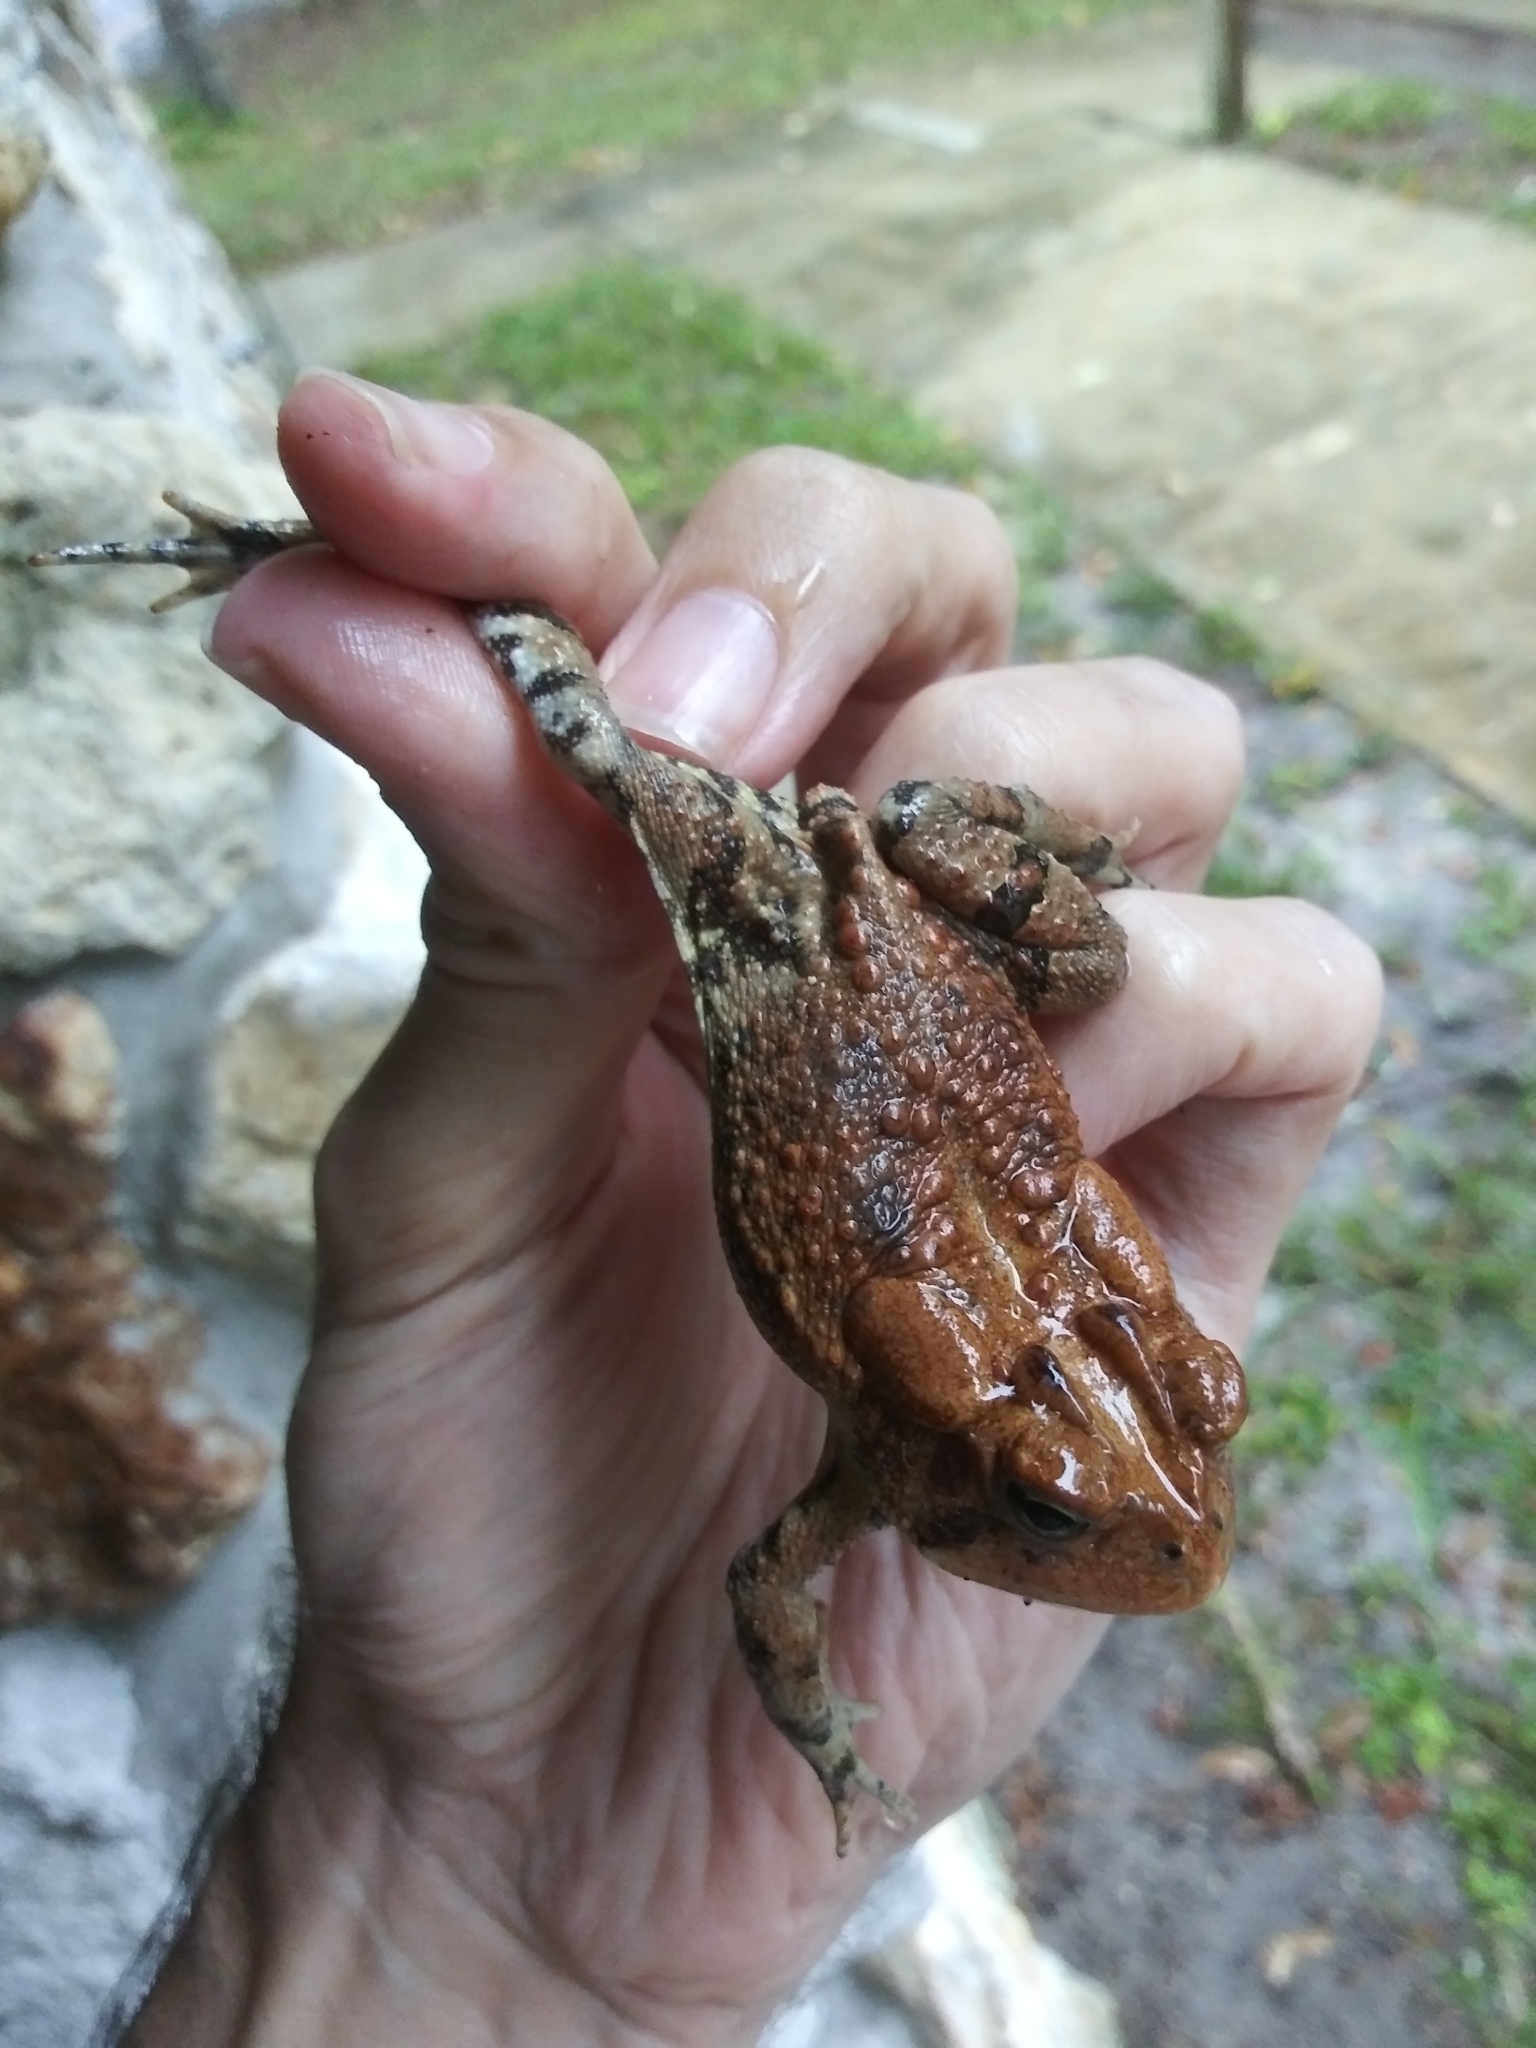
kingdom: Animalia
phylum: Chordata
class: Amphibia
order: Anura
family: Bufonidae
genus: Anaxyrus
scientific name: Anaxyrus terrestris
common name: Southern toad
